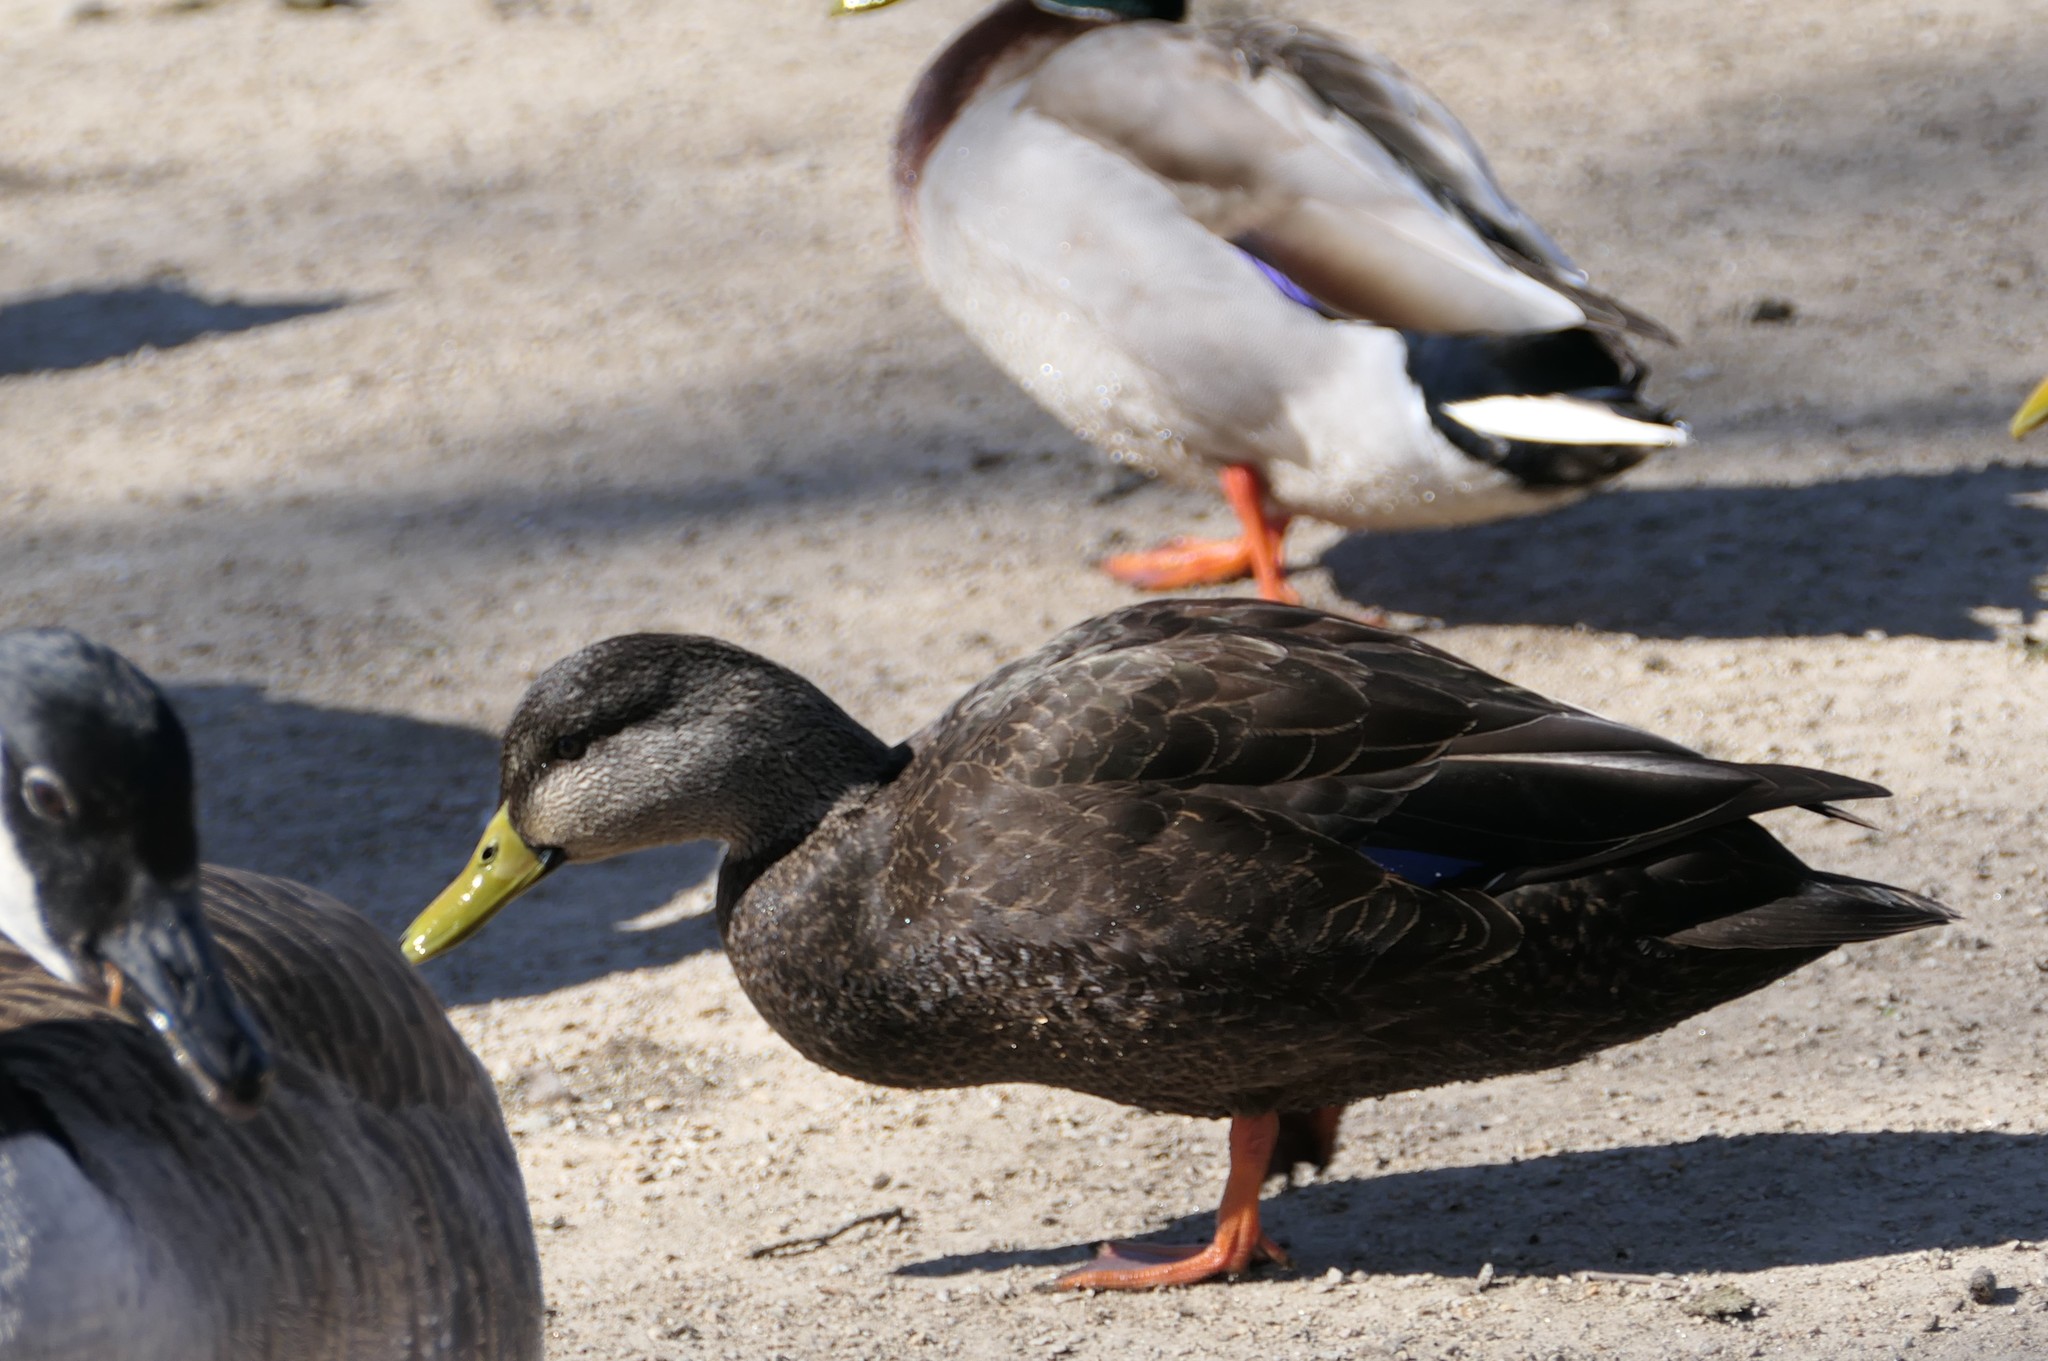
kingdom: Animalia
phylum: Chordata
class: Aves
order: Anseriformes
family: Anatidae
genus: Anas
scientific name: Anas rubripes
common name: American black duck
